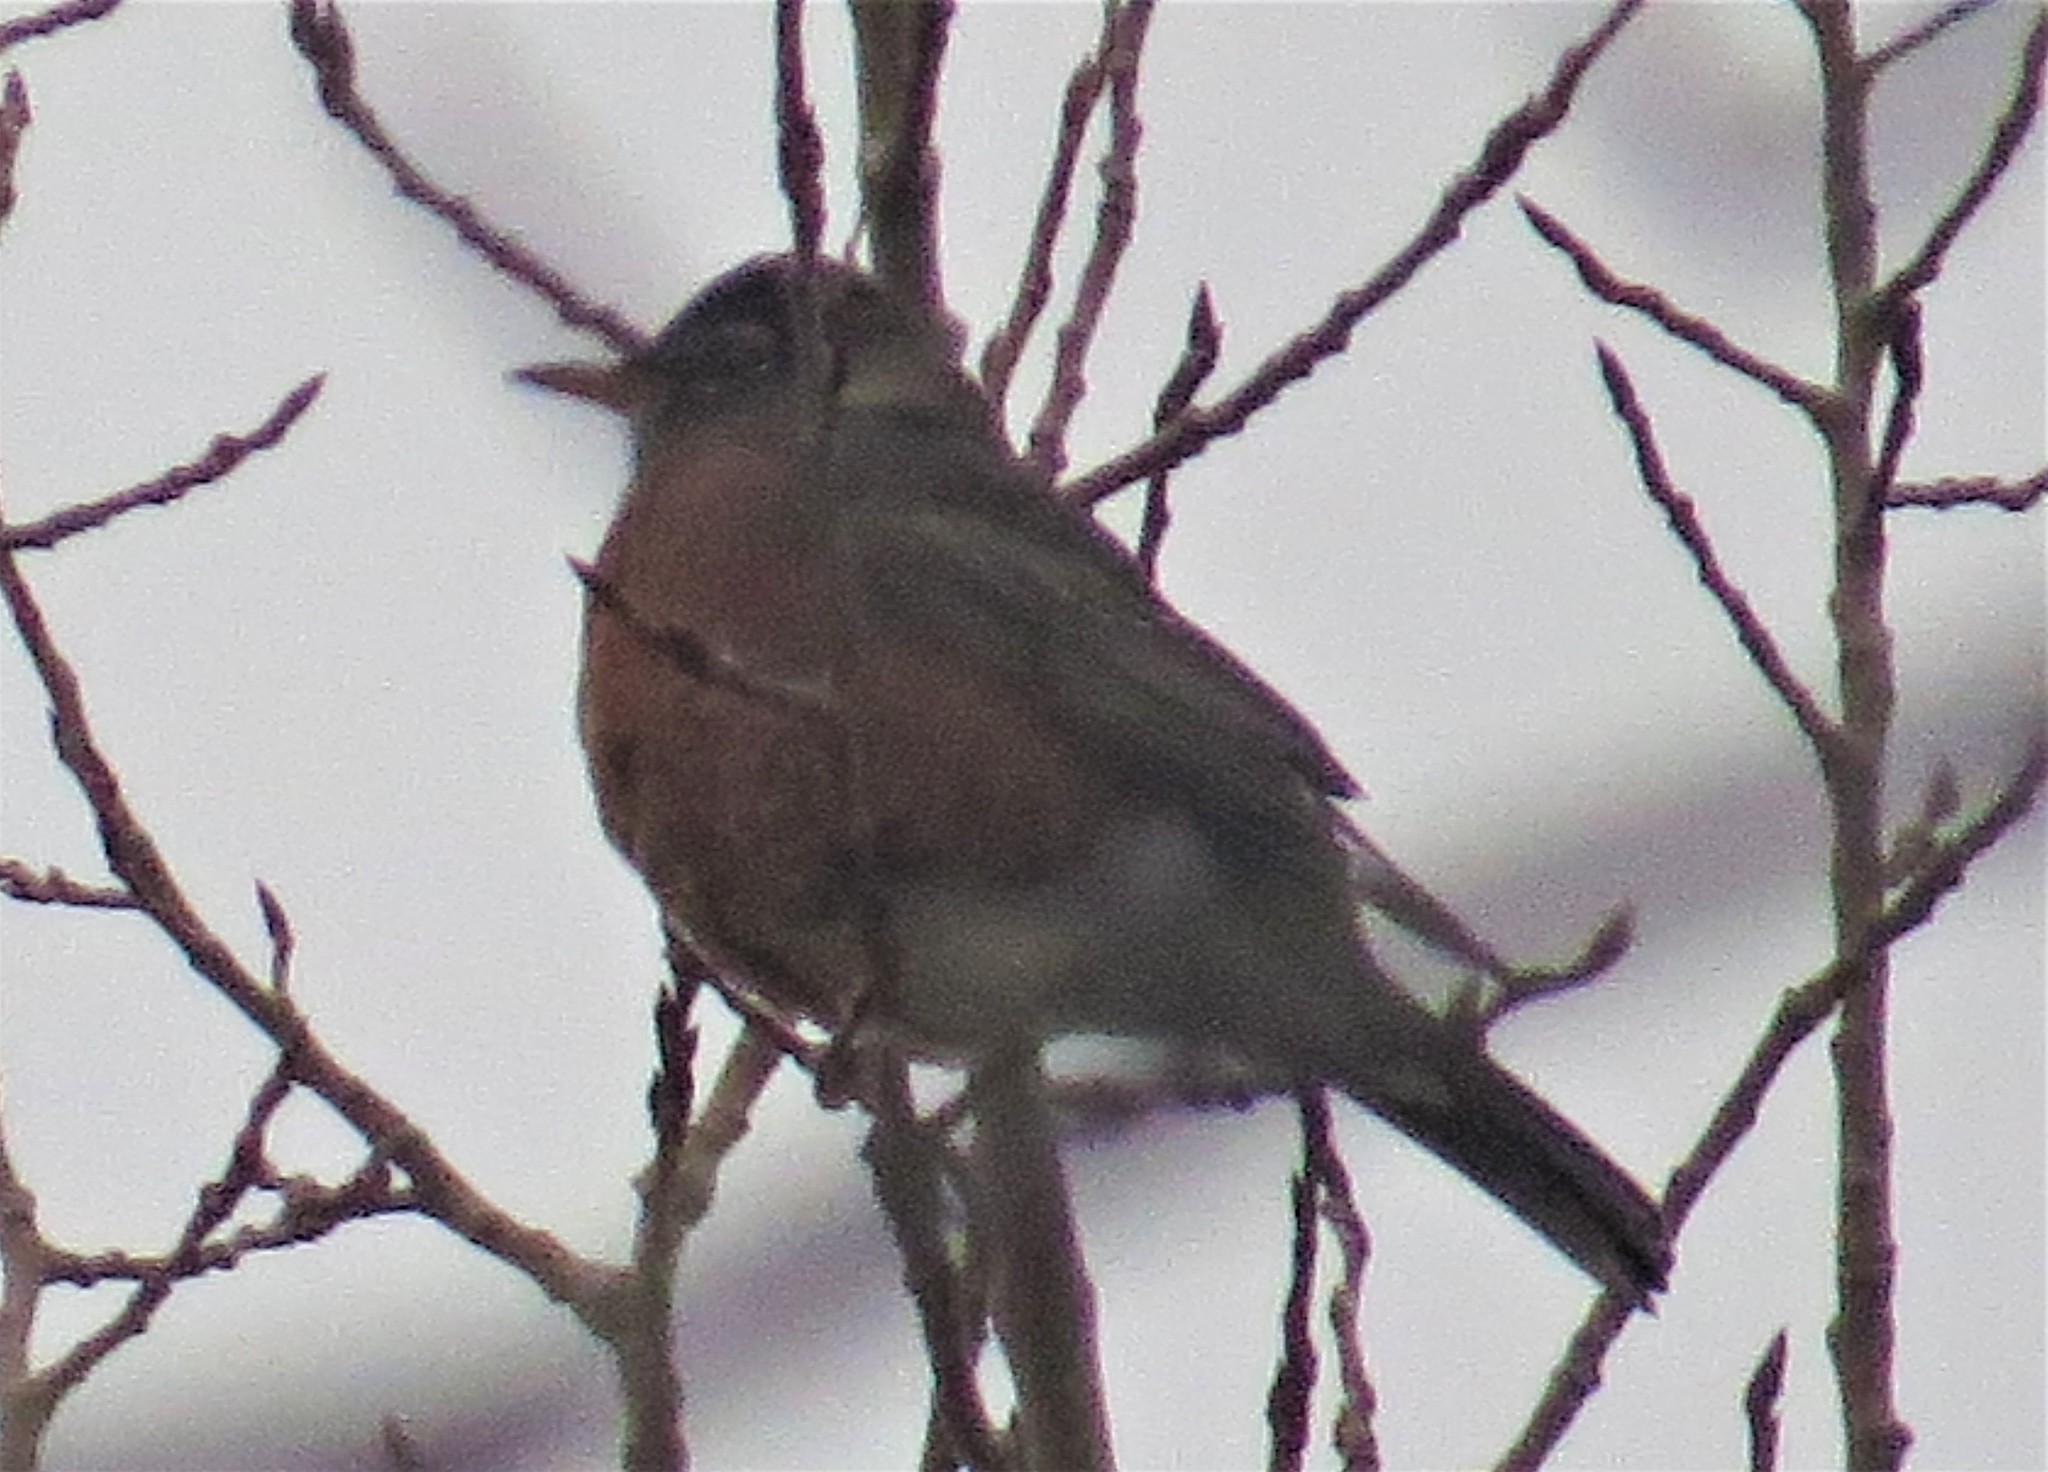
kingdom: Animalia
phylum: Chordata
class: Aves
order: Passeriformes
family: Turdidae
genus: Turdus
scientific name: Turdus migratorius
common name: American robin
